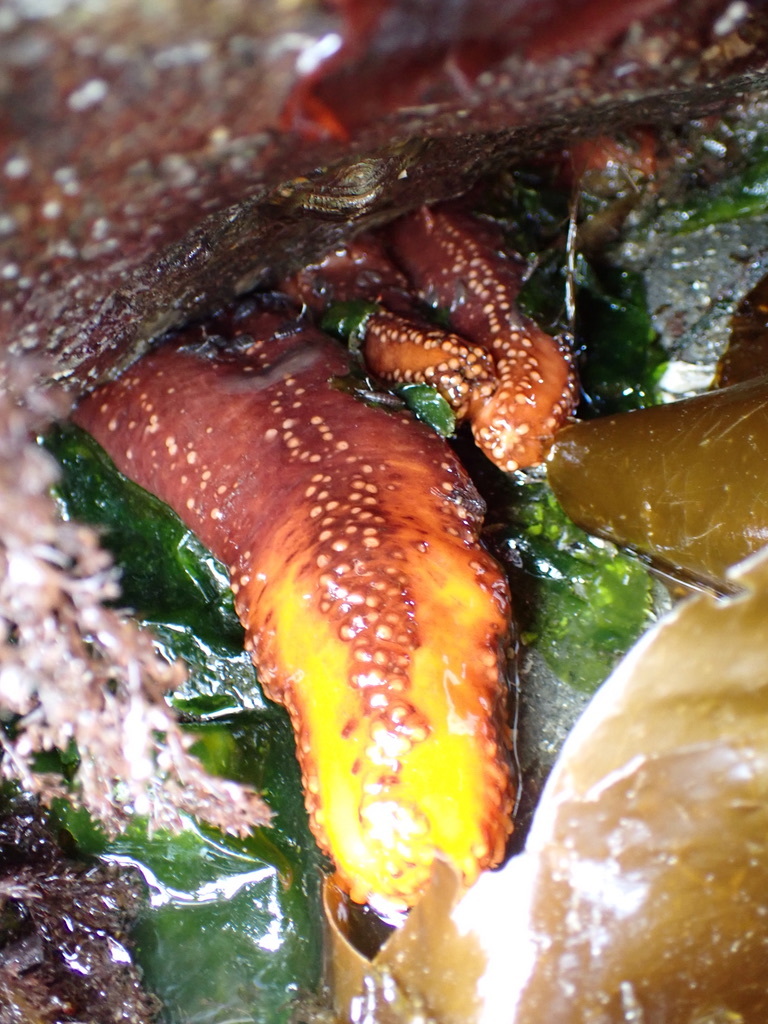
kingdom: Animalia
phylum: Echinodermata
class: Holothuroidea
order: Dendrochirotida
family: Cucumariidae
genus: Cucumaria
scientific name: Cucumaria miniata
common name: Orange sea cucumber
